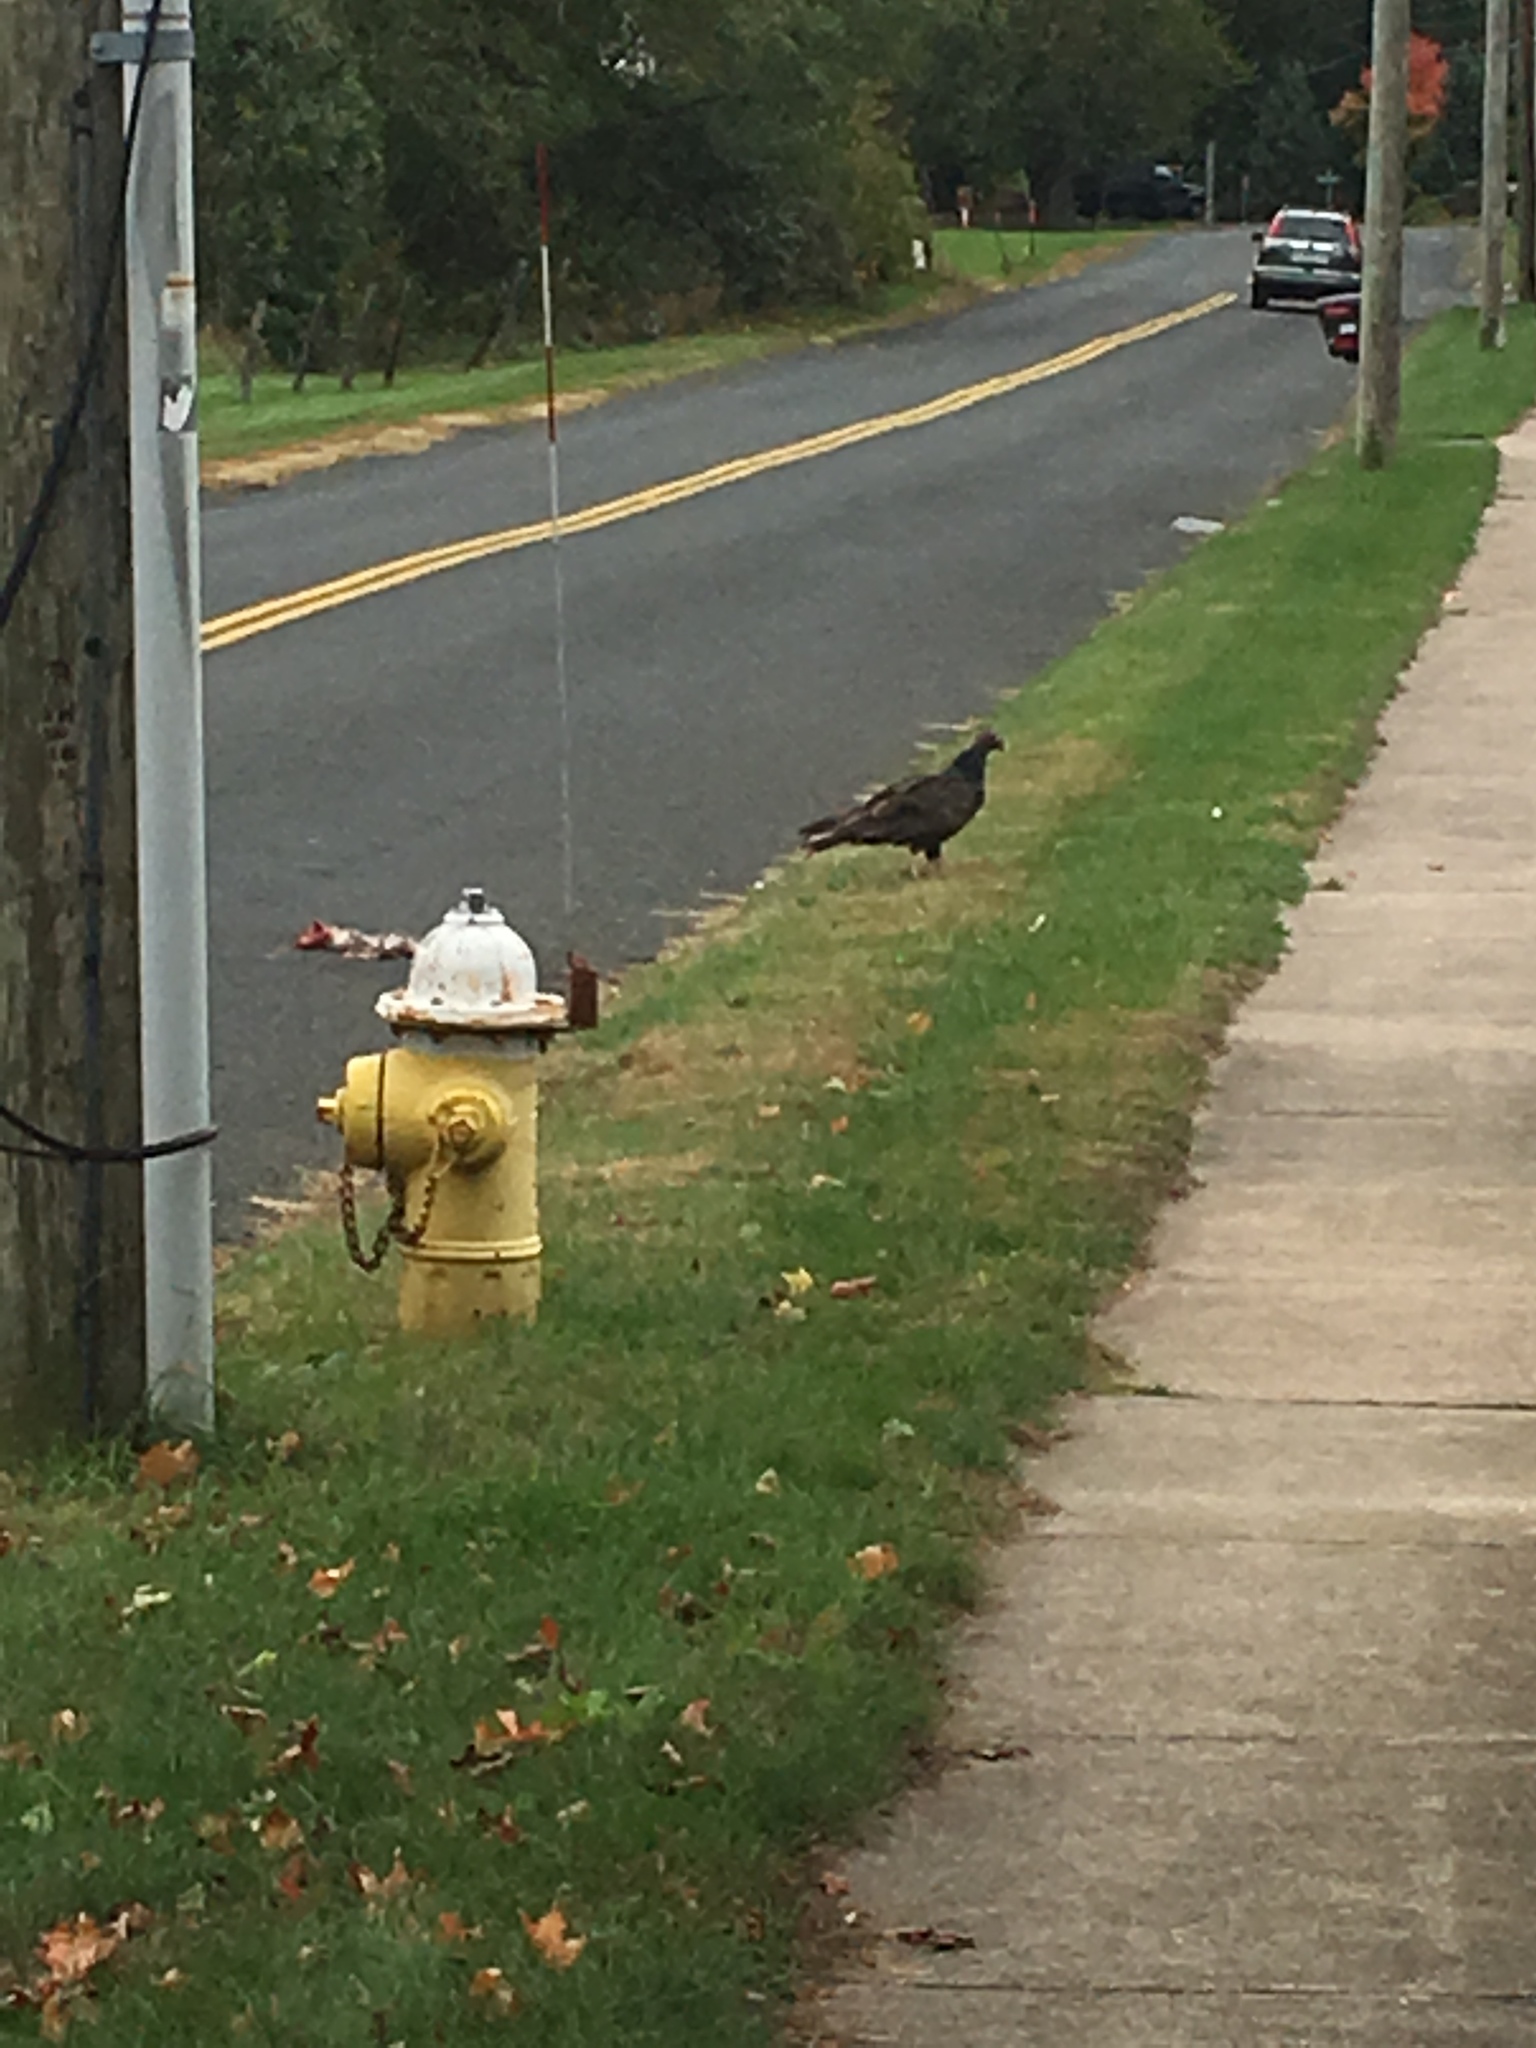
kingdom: Animalia
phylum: Chordata
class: Aves
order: Accipitriformes
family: Cathartidae
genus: Cathartes
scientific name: Cathartes aura
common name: Turkey vulture
